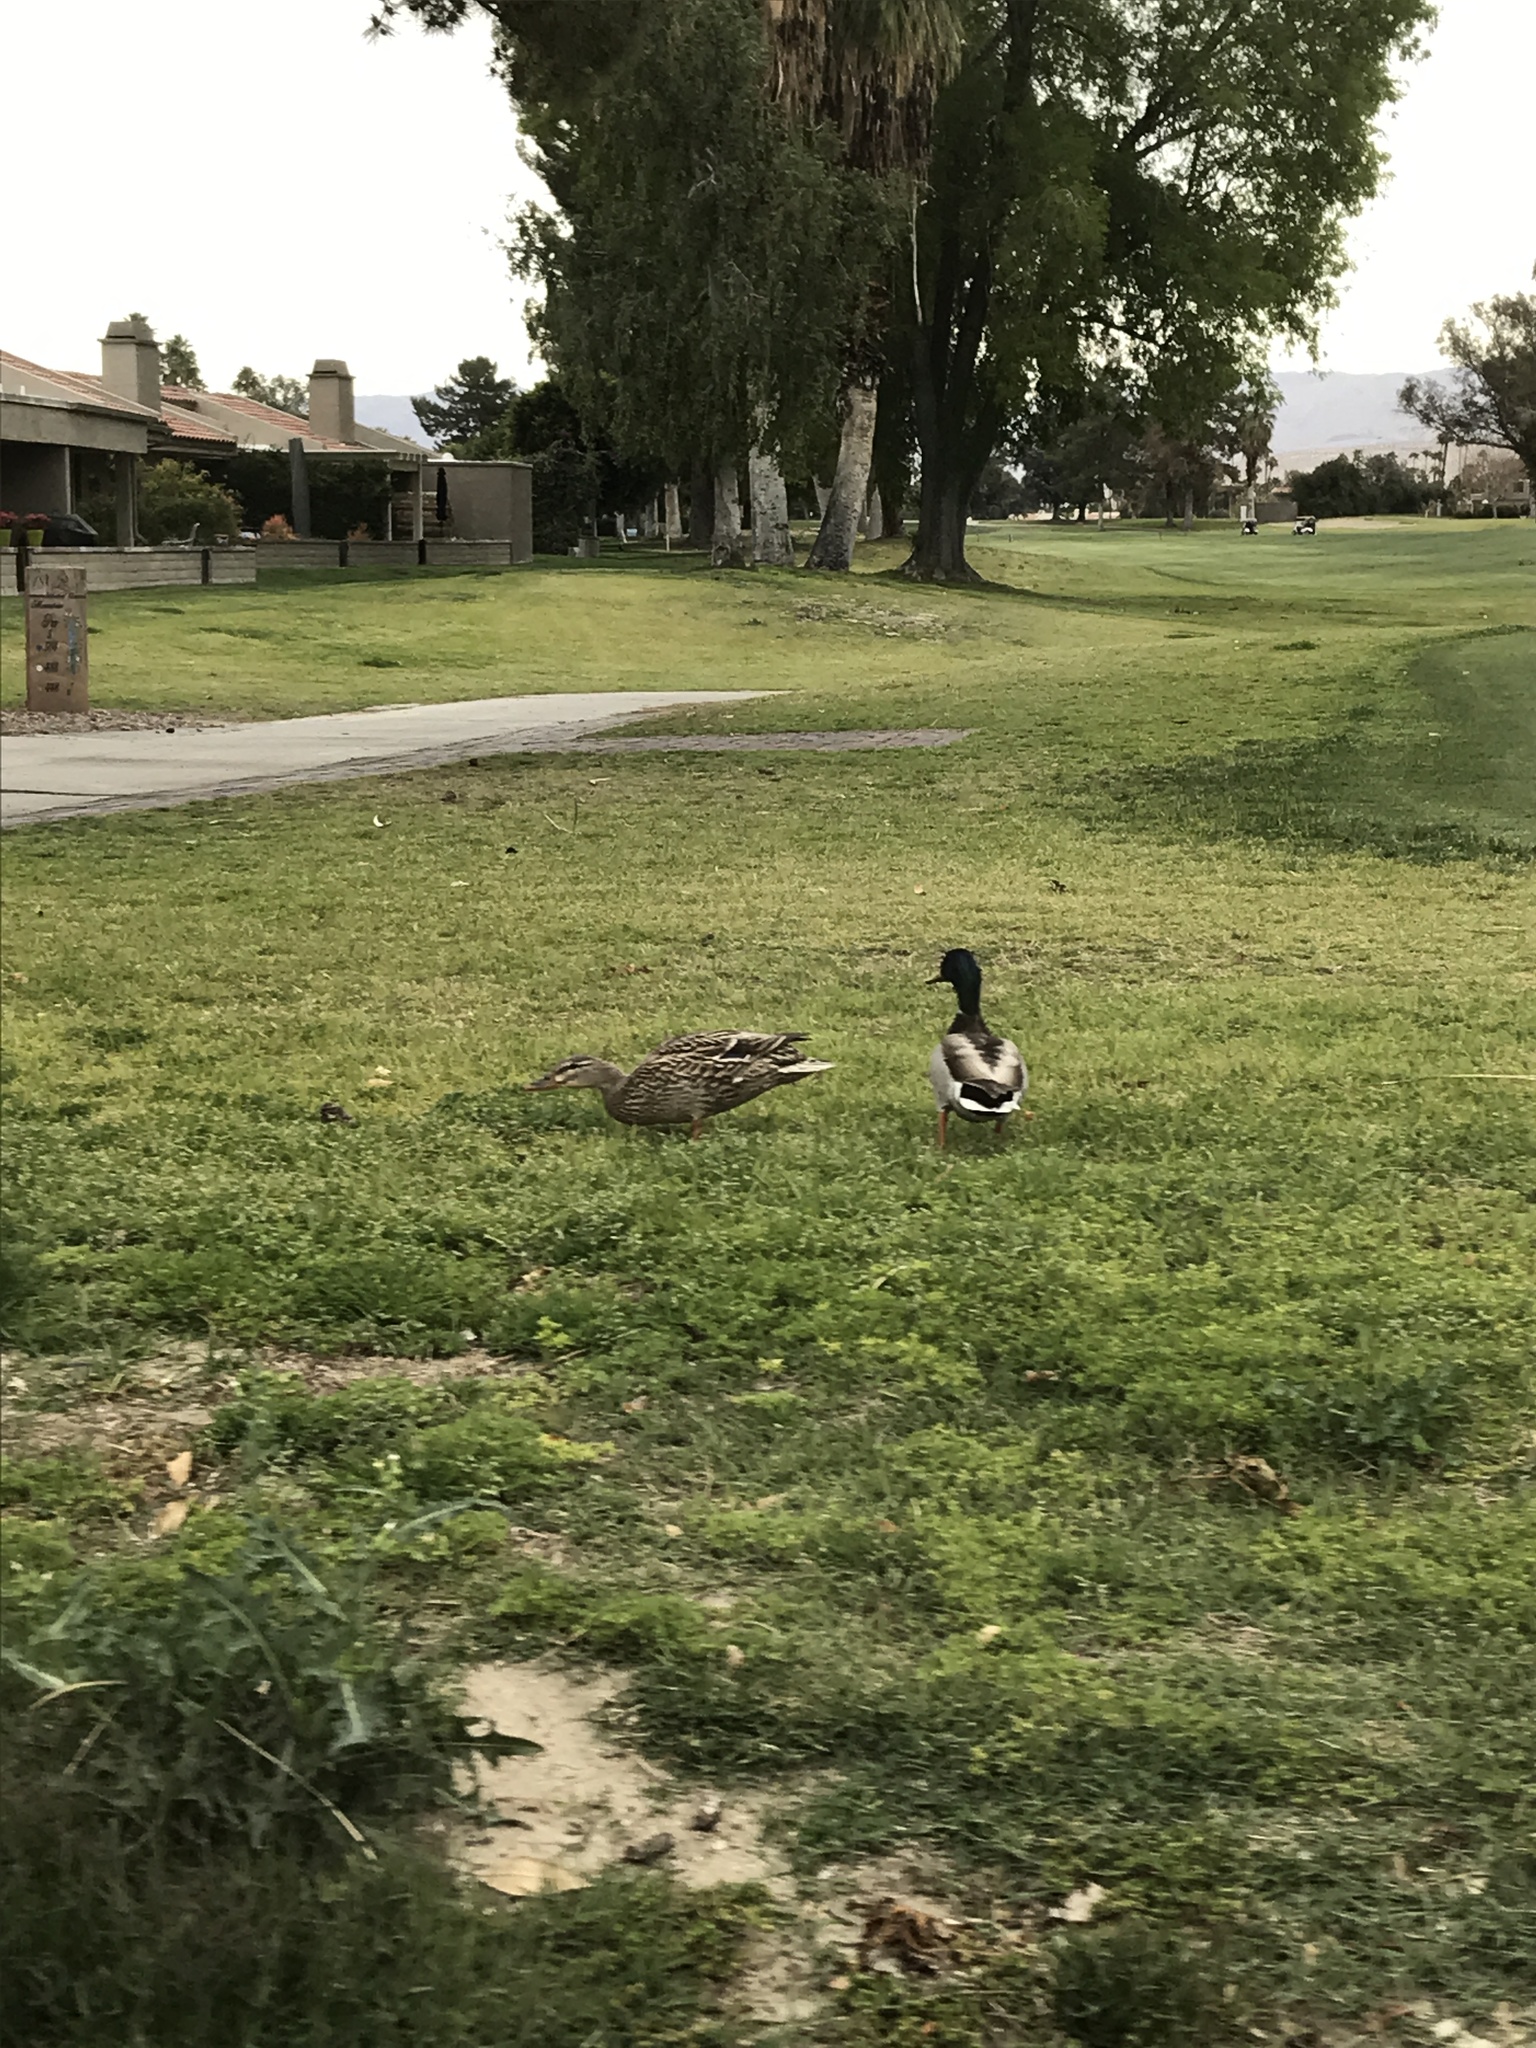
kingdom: Animalia
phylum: Chordata
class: Aves
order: Anseriformes
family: Anatidae
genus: Anas
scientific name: Anas platyrhynchos
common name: Mallard
